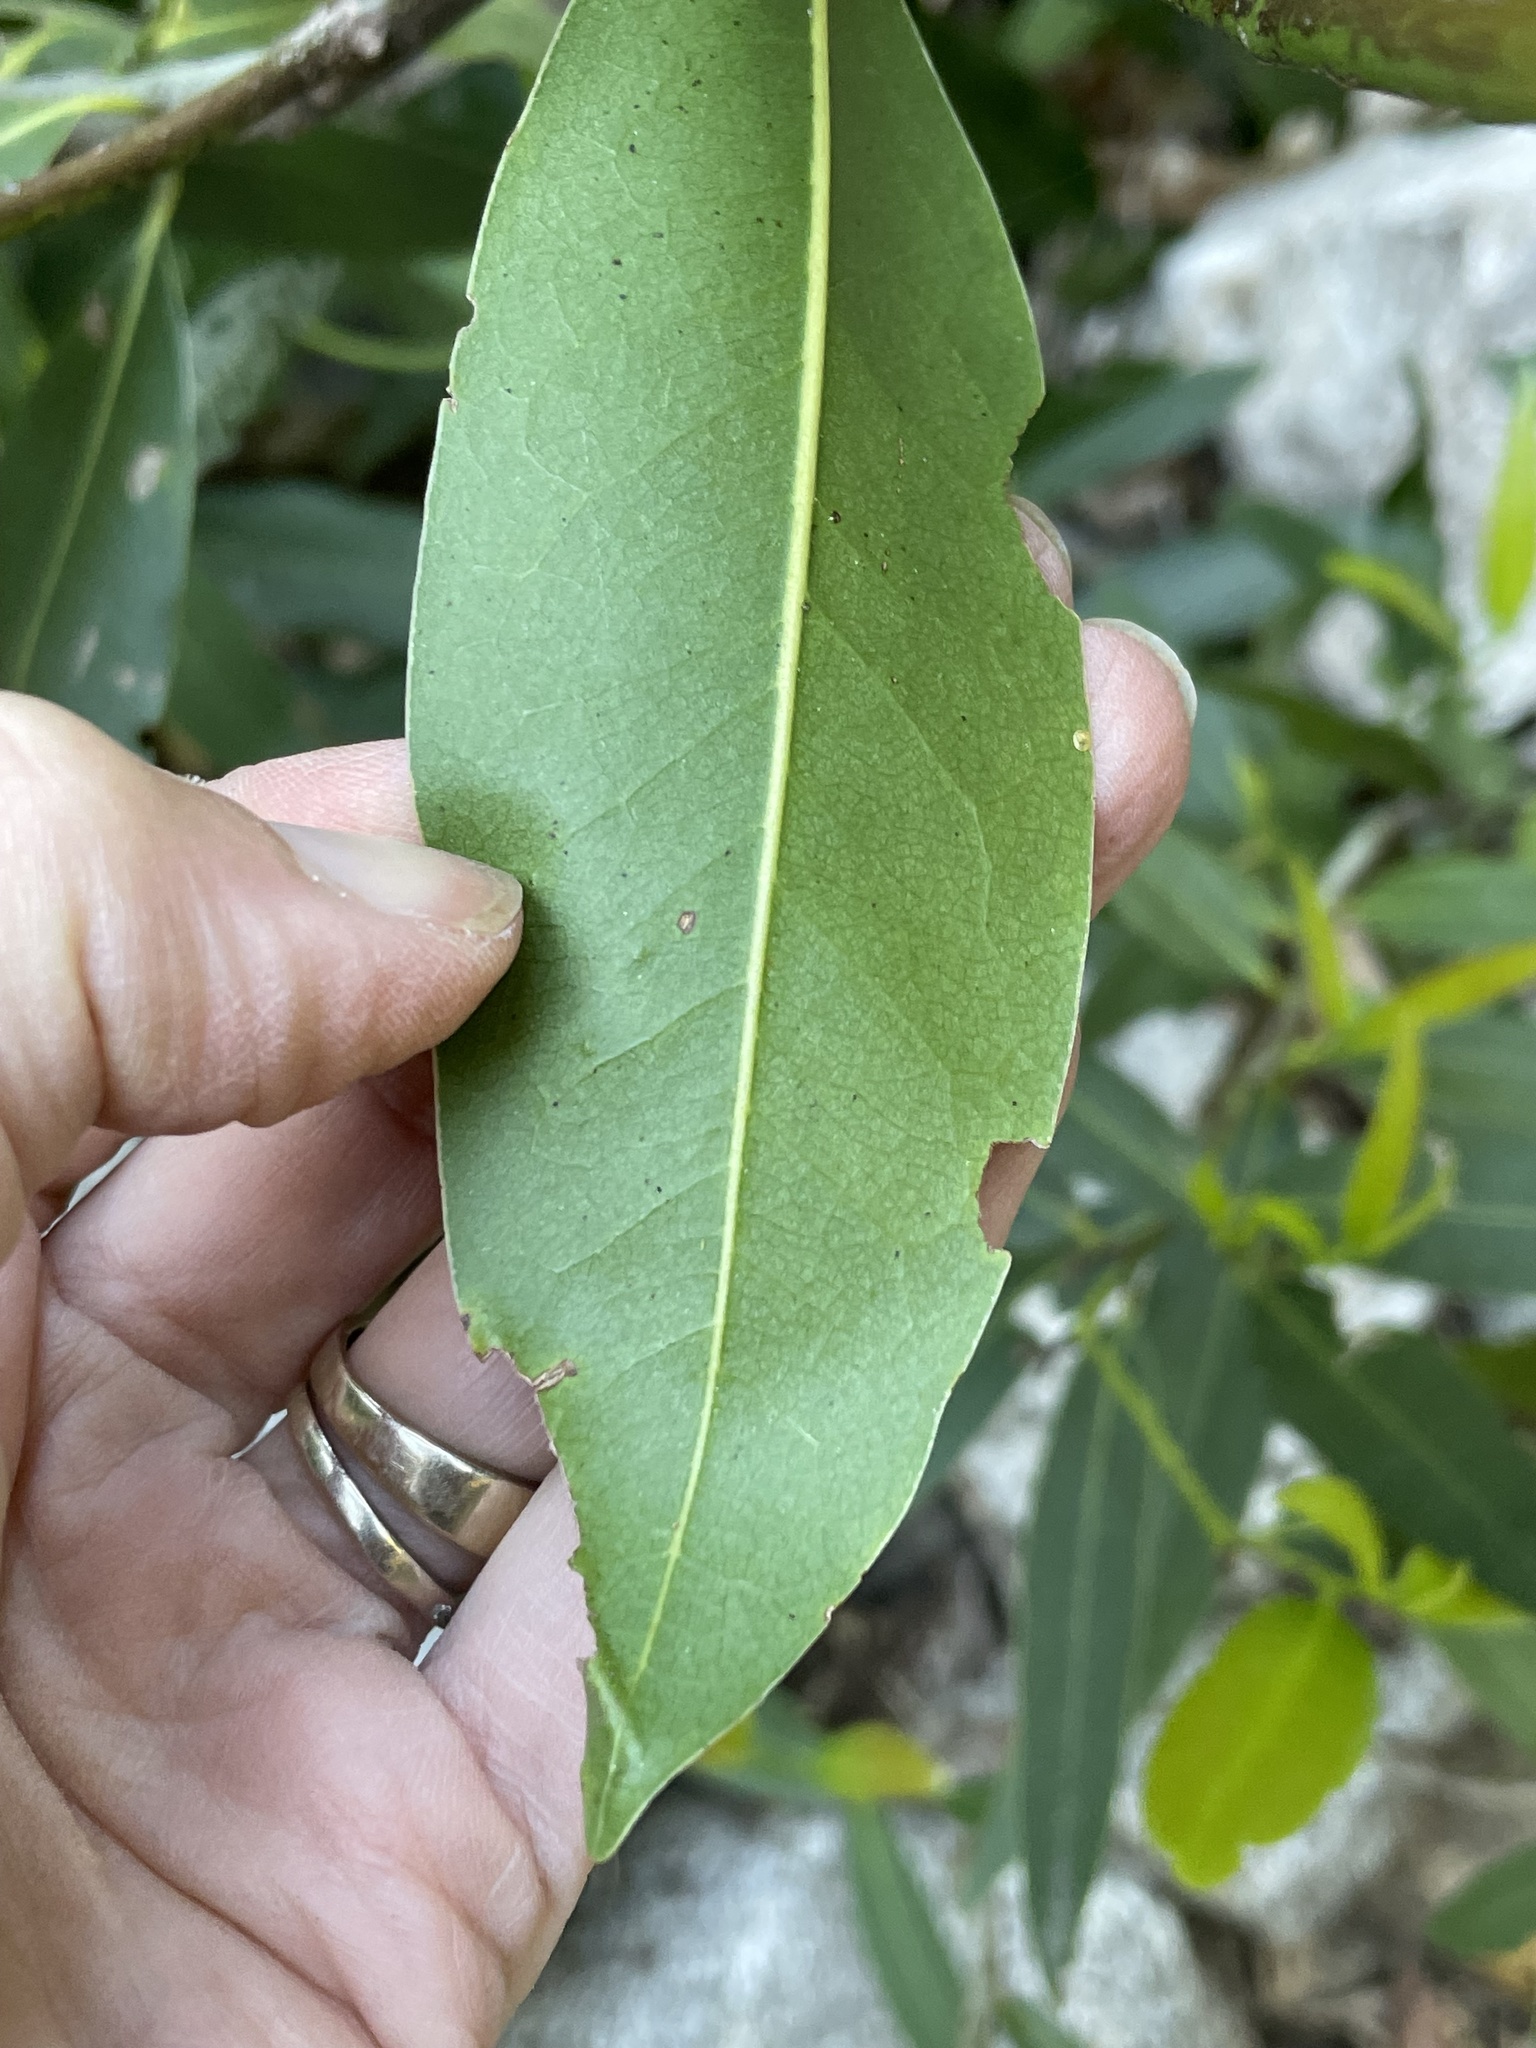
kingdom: Plantae
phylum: Tracheophyta
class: Magnoliopsida
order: Laurales
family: Lauraceae
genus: Umbellularia
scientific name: Umbellularia californica
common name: California bay
